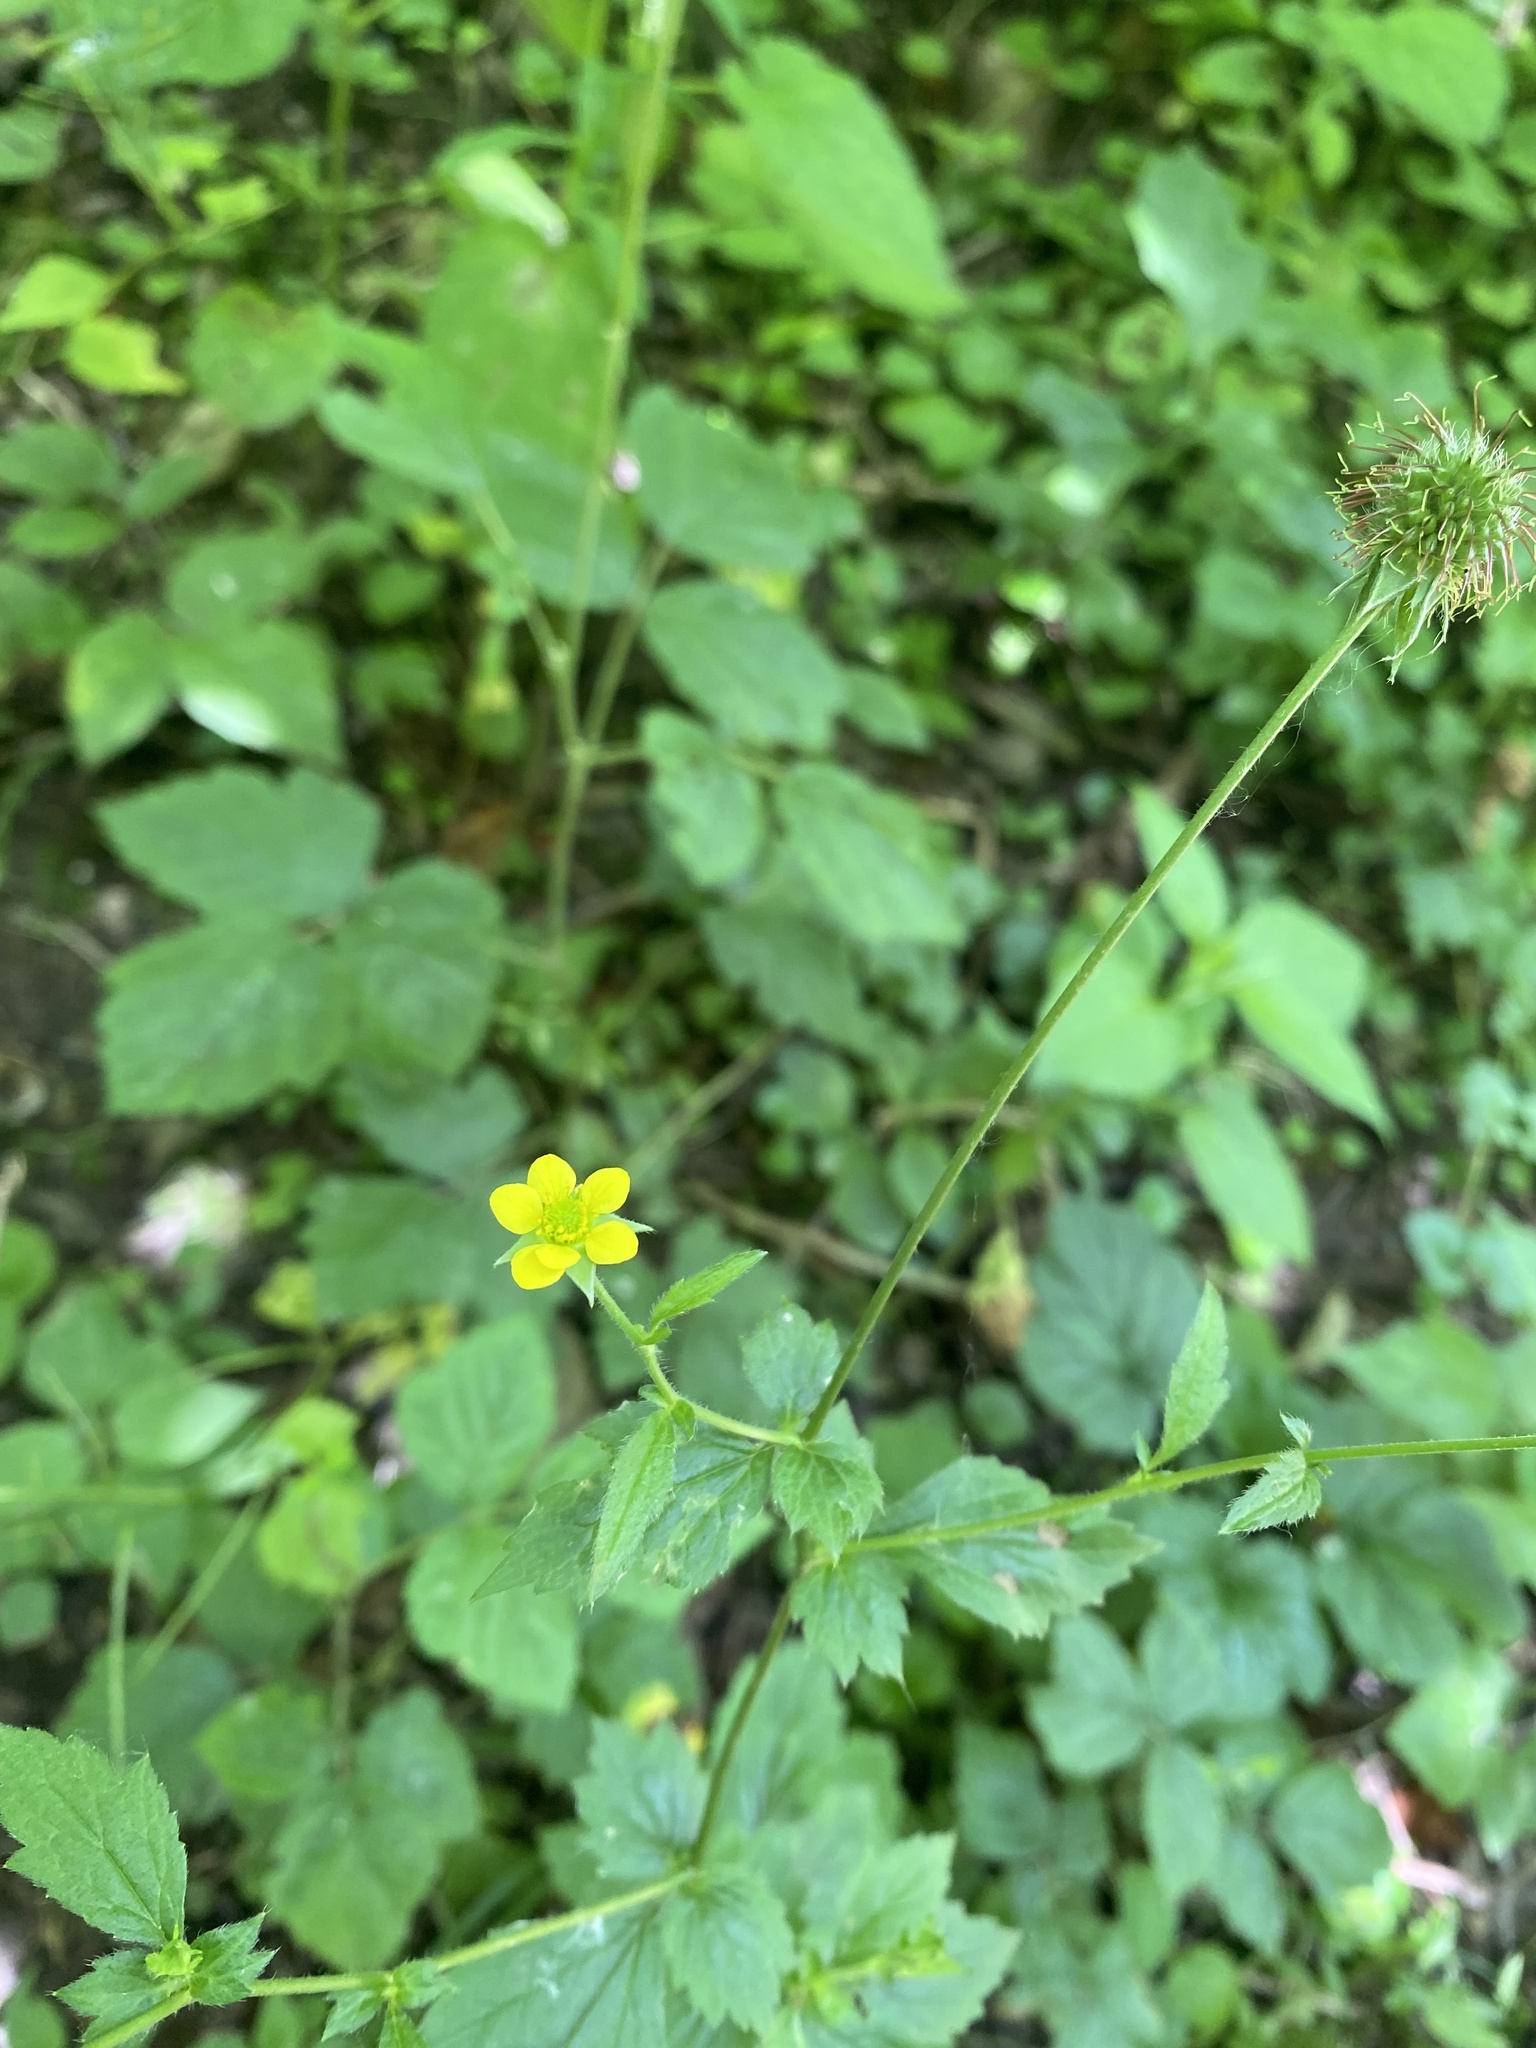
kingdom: Plantae
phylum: Tracheophyta
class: Magnoliopsida
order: Rosales
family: Rosaceae
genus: Geum
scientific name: Geum urbanum
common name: Wood avens
